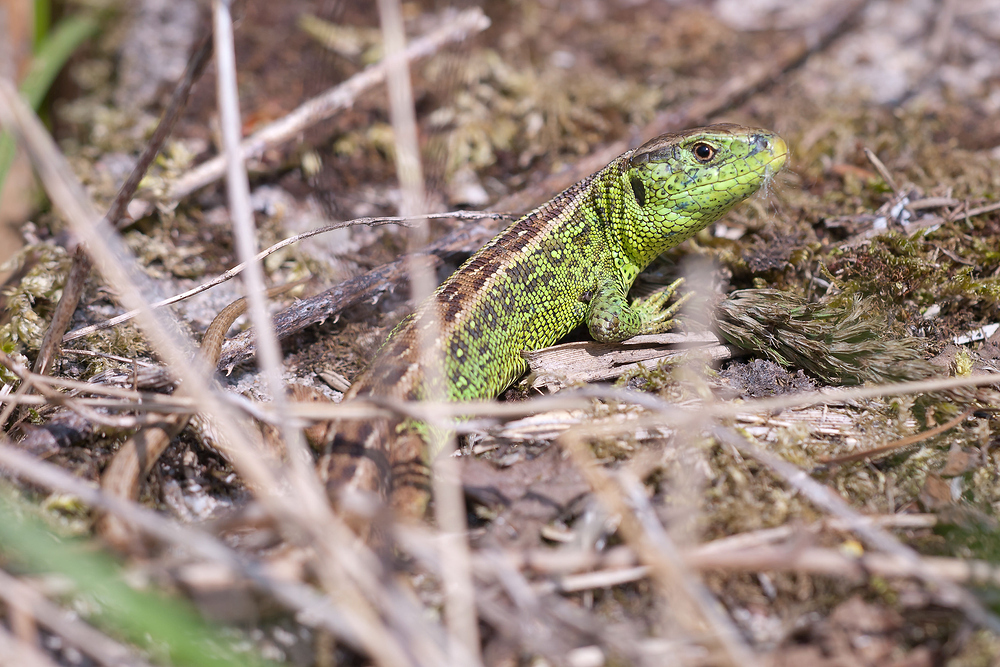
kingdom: Animalia
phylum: Chordata
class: Squamata
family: Lacertidae
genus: Lacerta
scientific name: Lacerta agilis
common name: Sand lizard
